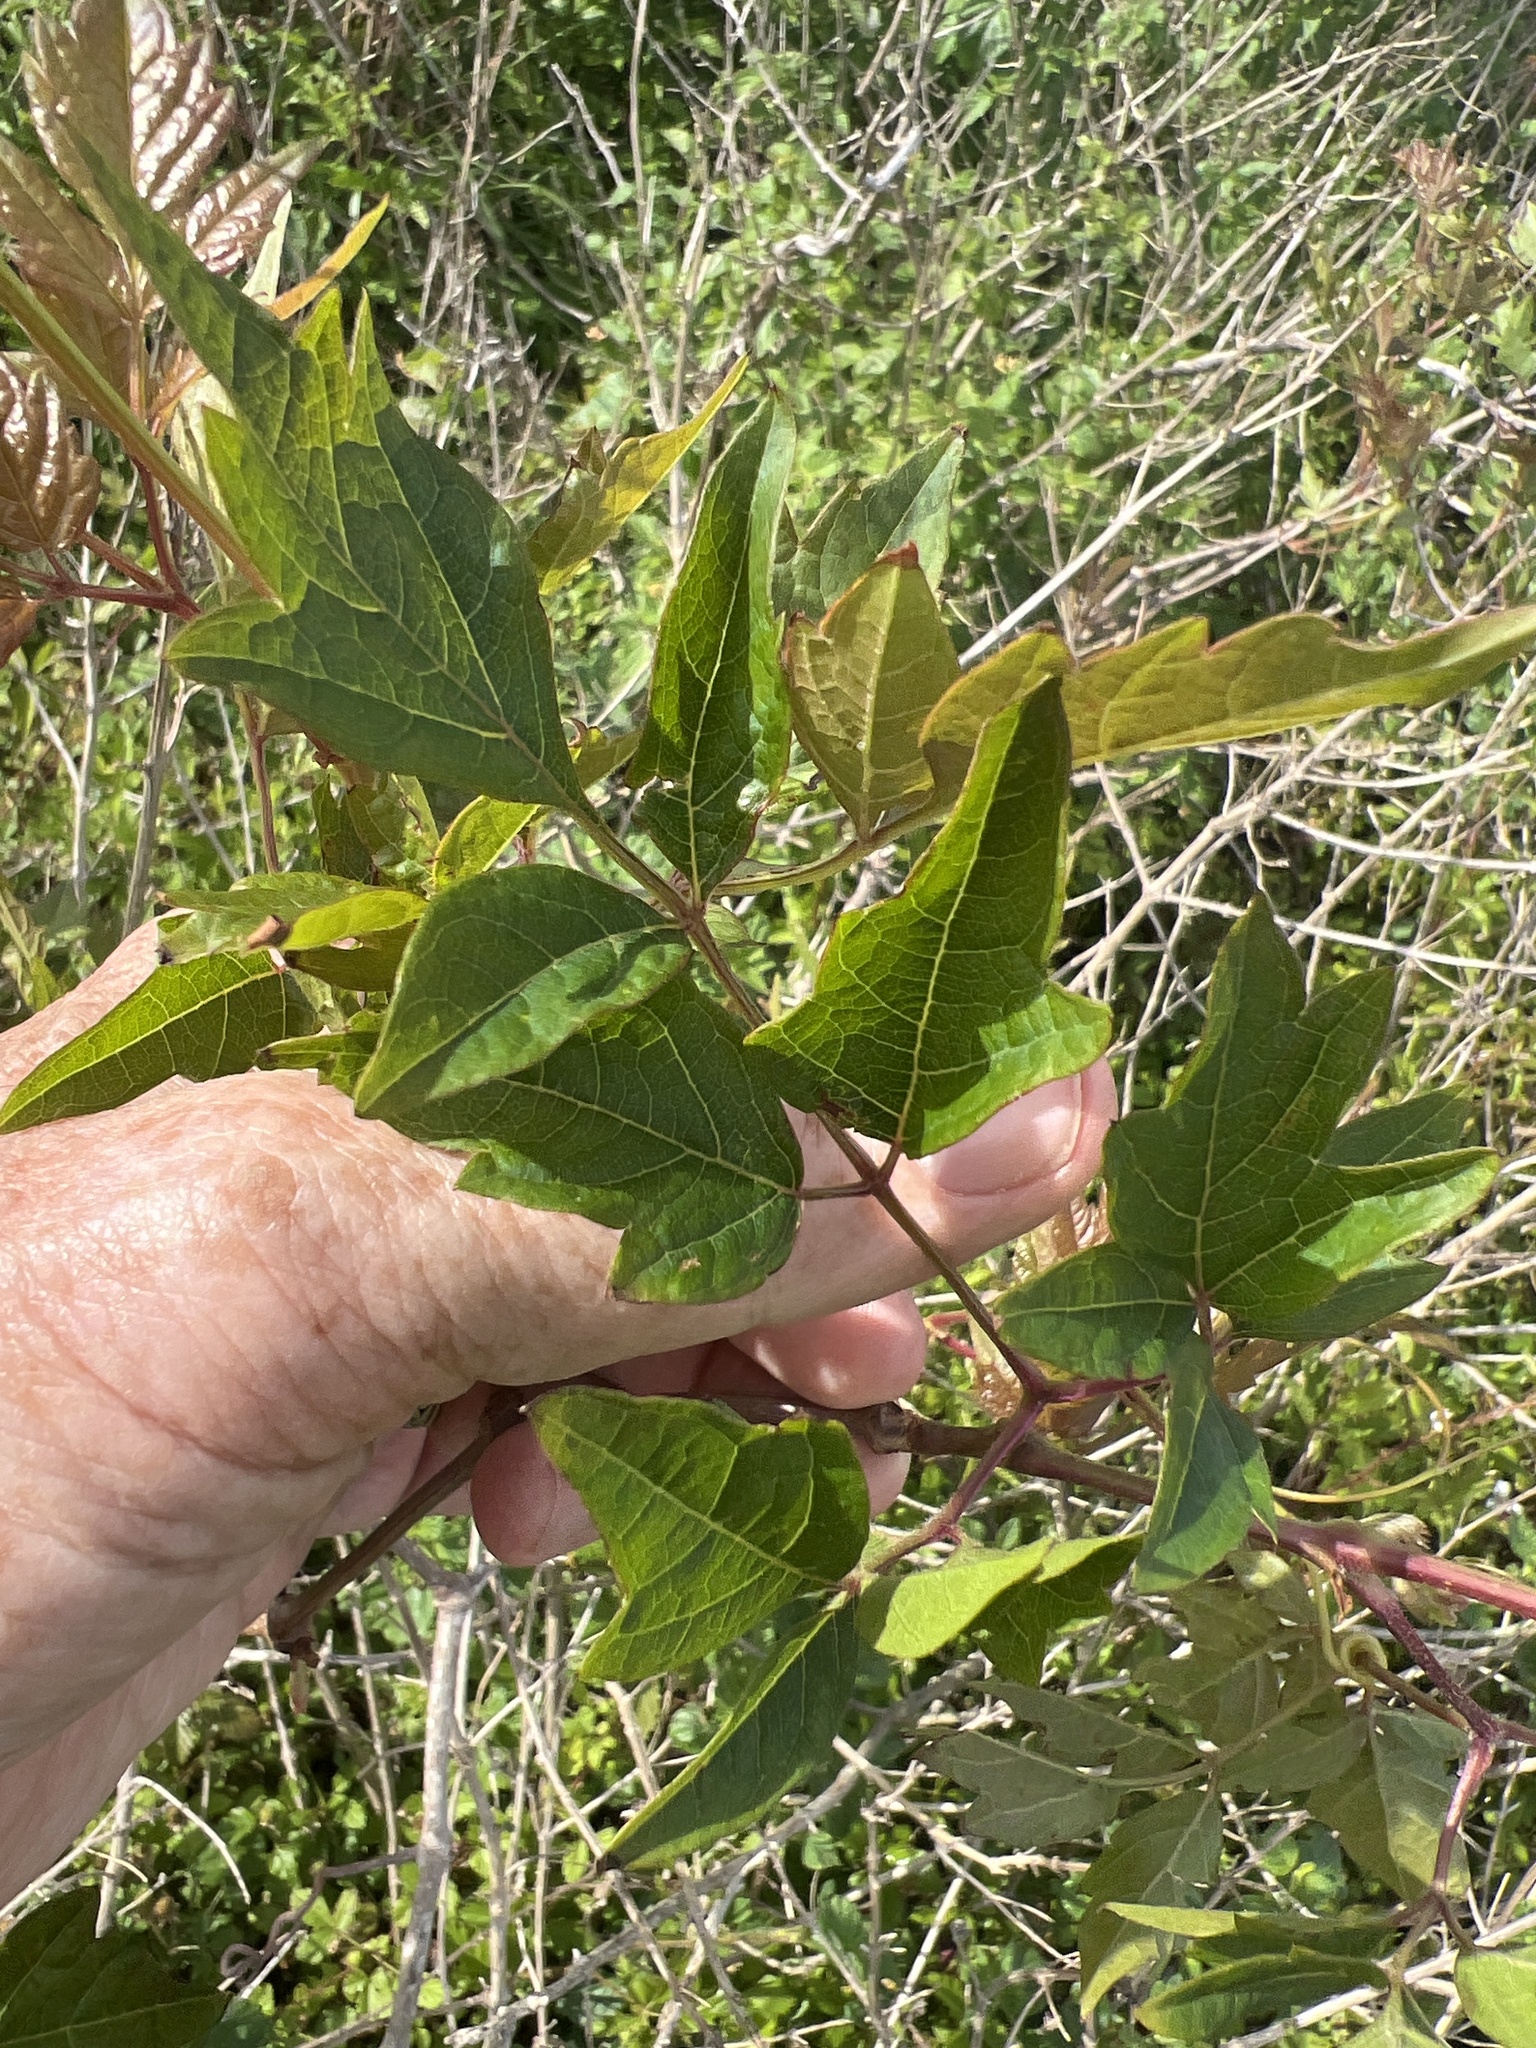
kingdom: Plantae
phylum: Tracheophyta
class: Magnoliopsida
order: Vitales
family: Vitaceae
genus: Nekemias
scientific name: Nekemias arborea
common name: Peppervine
